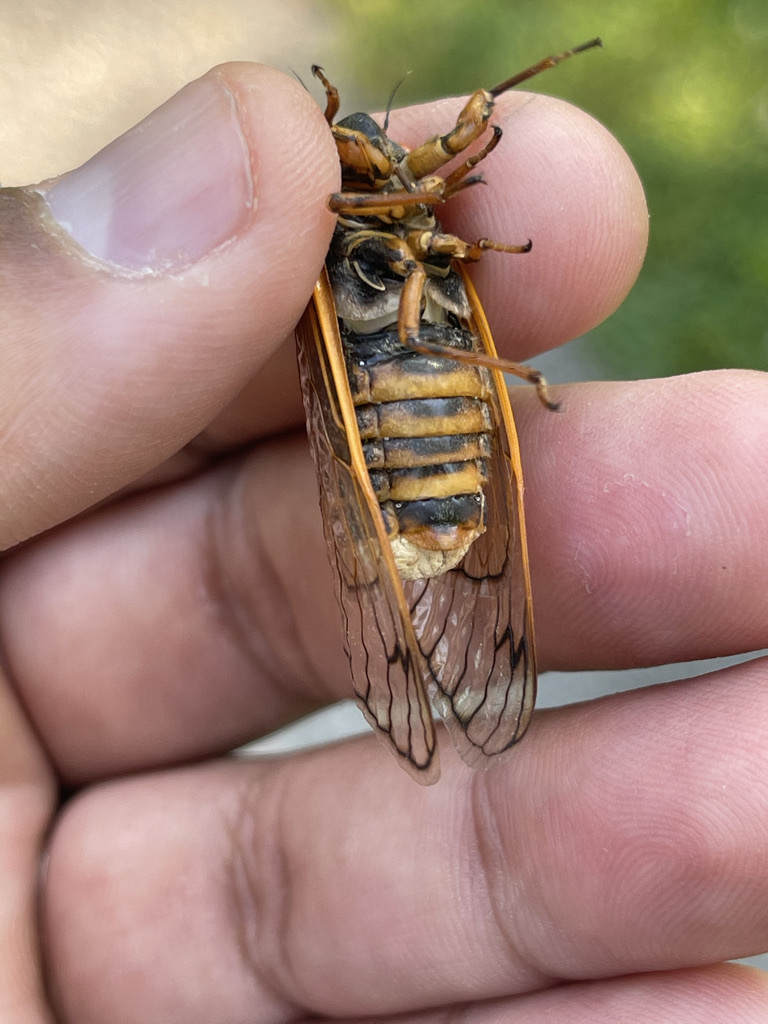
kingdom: Fungi
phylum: Entomophthoromycota
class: Entomophthoromycetes
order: Entomophthorales
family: Entomophthoraceae
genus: Massospora
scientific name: Massospora cicadina
